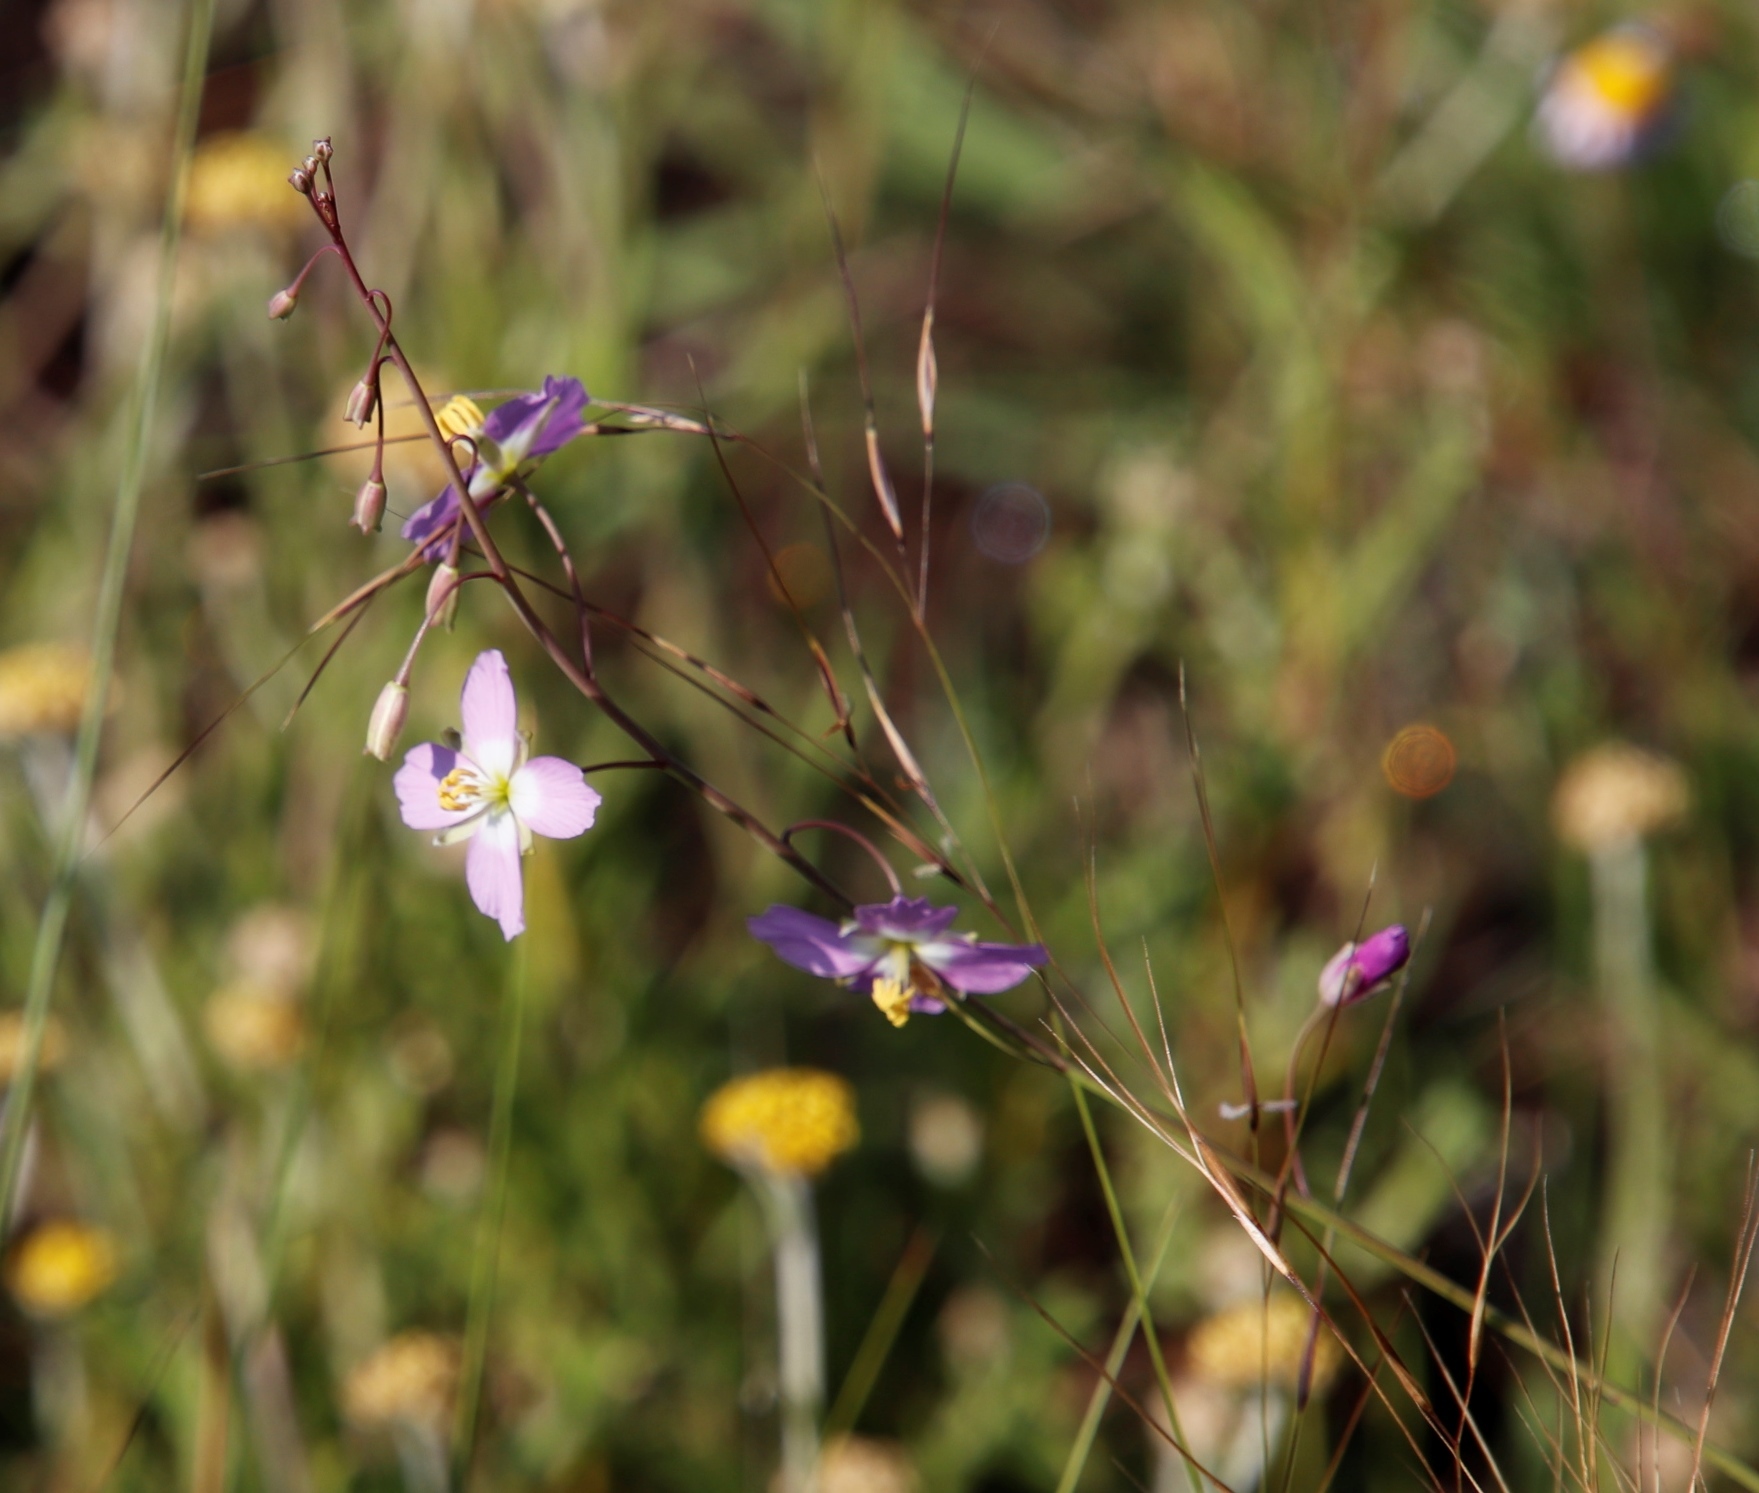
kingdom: Plantae
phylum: Tracheophyta
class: Magnoliopsida
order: Brassicales
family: Brassicaceae
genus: Heliophila
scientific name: Heliophila carnosa
